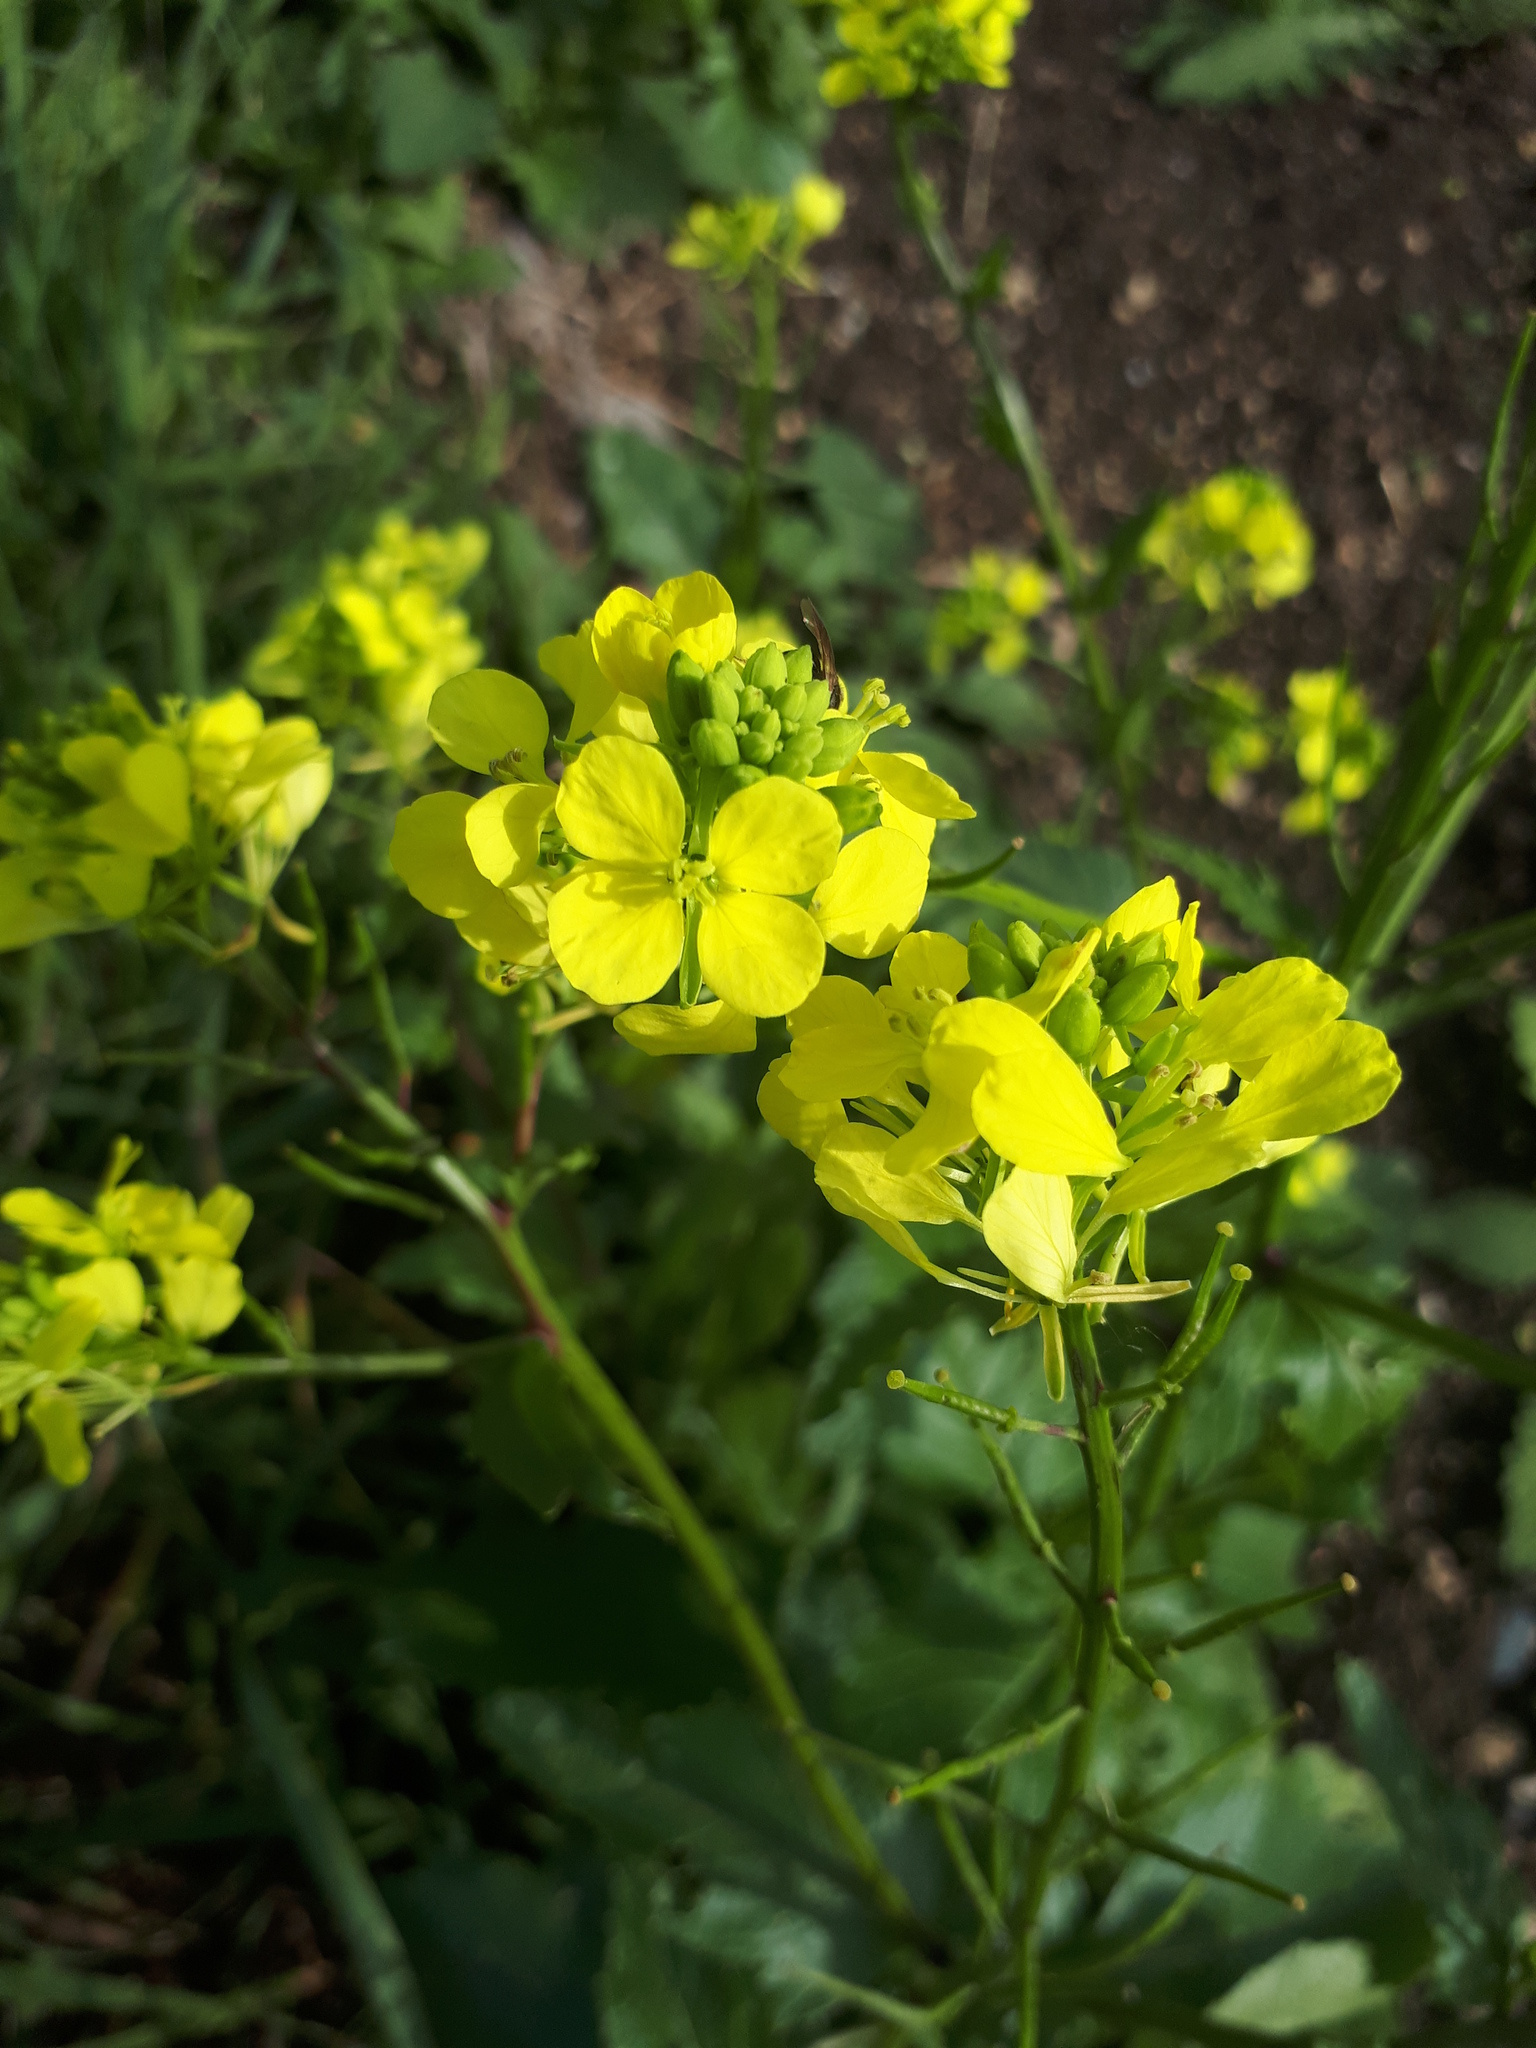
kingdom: Plantae
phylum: Tracheophyta
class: Magnoliopsida
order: Brassicales
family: Brassicaceae
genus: Sinapis
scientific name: Sinapis arvensis
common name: Charlock
